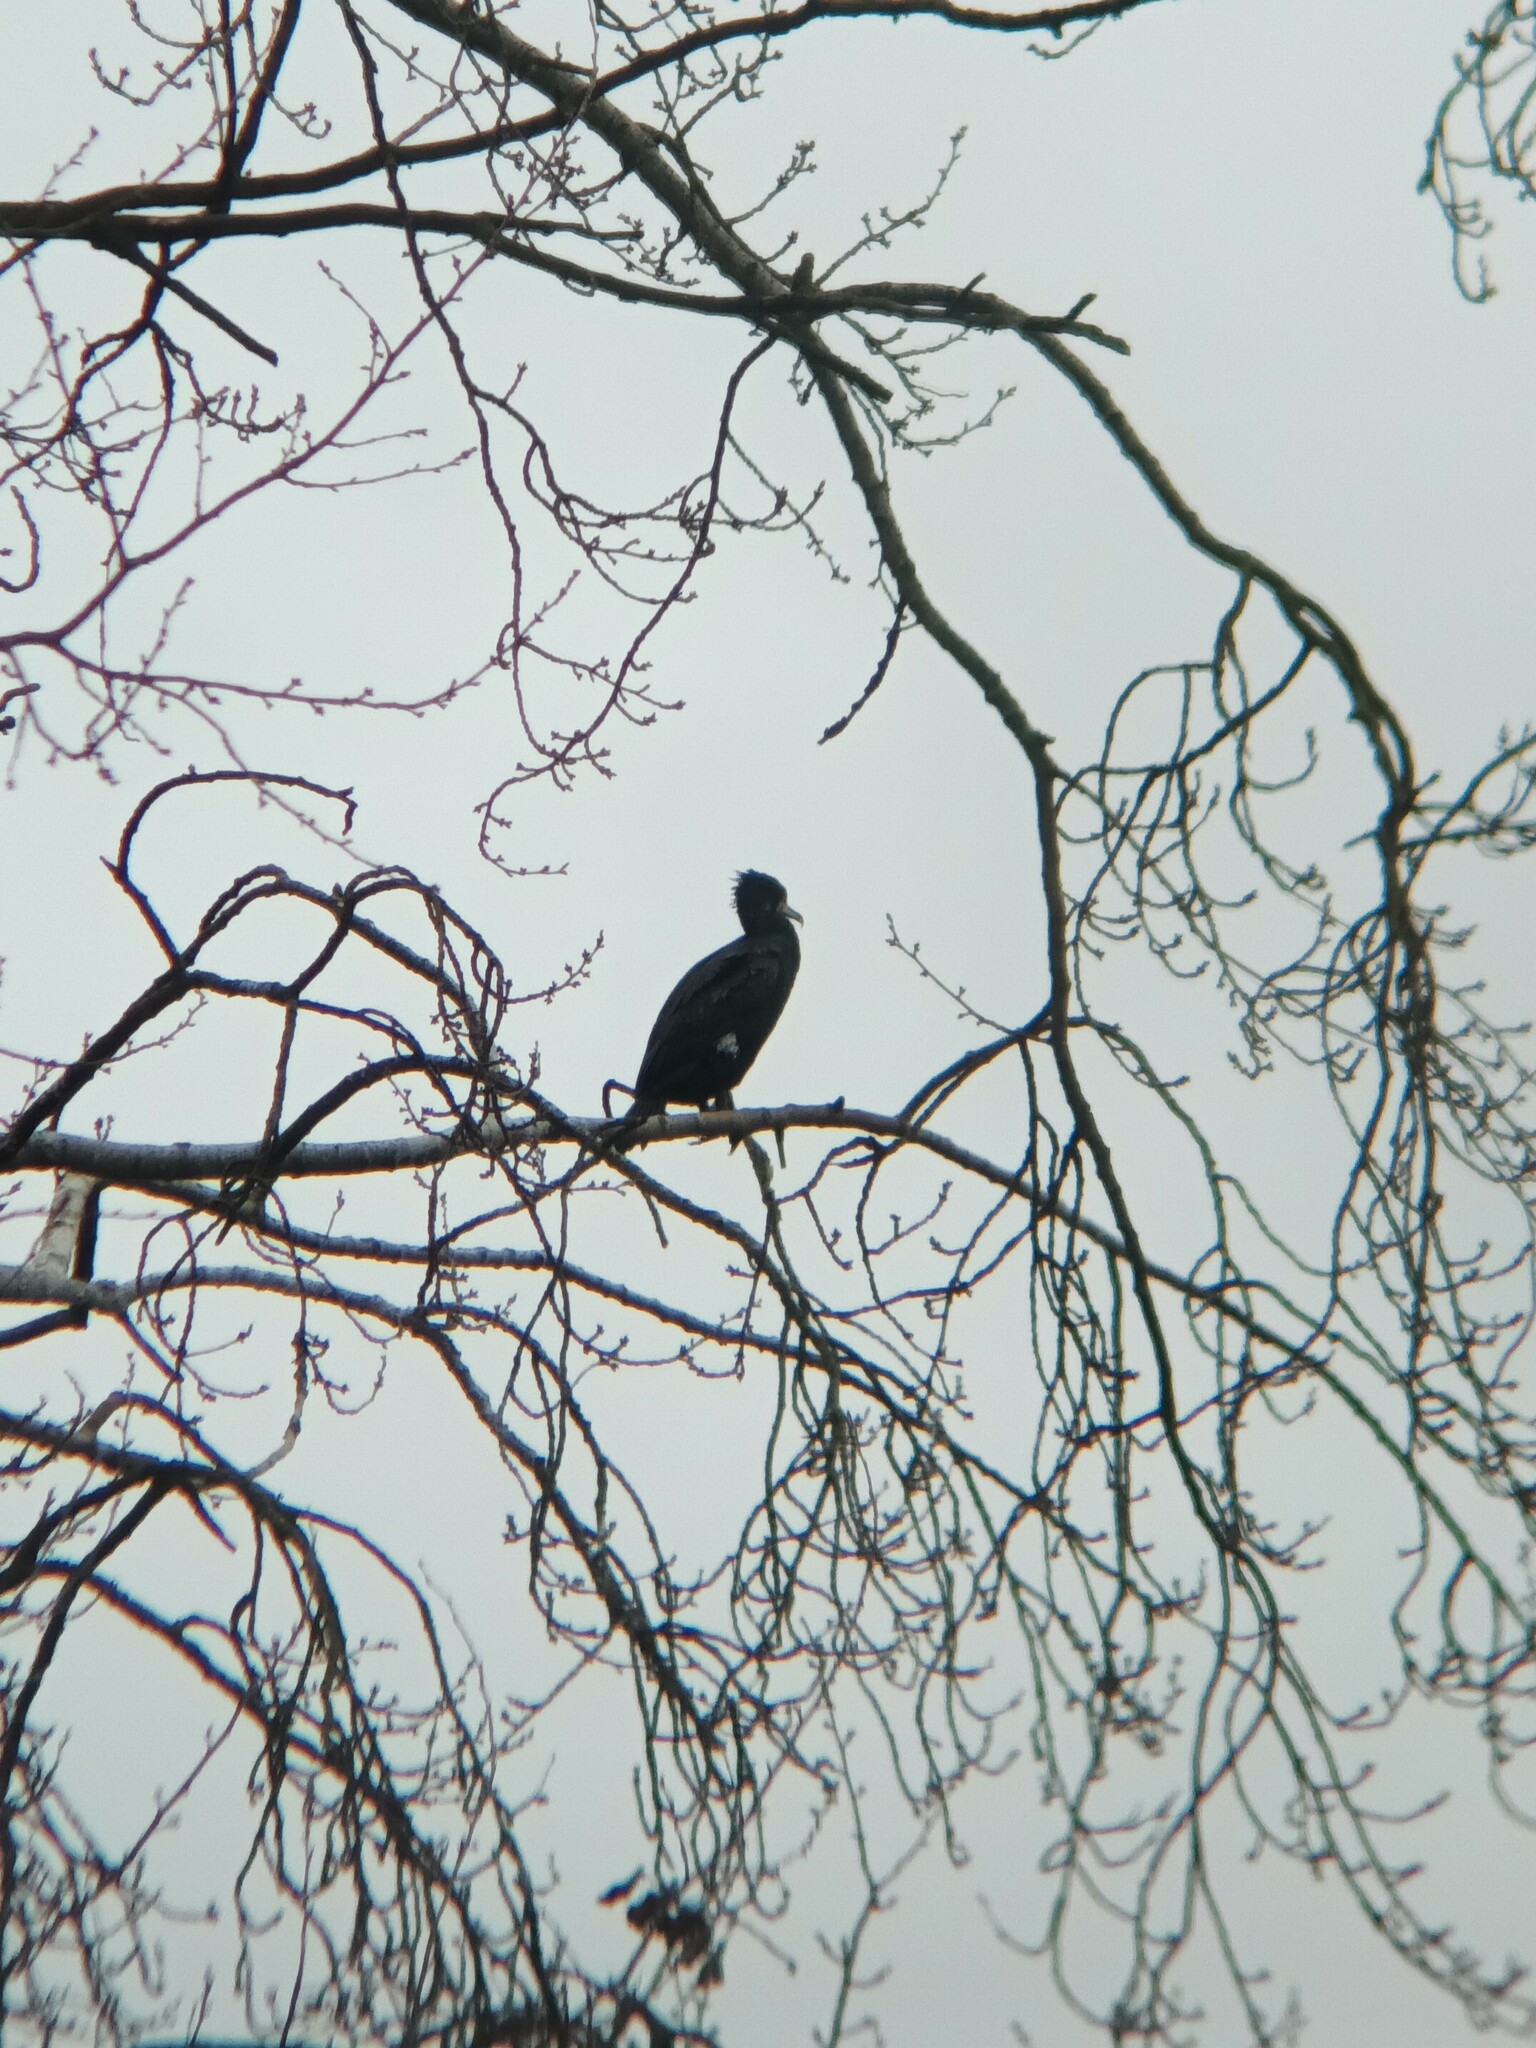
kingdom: Animalia
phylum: Chordata
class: Aves
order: Suliformes
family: Phalacrocoracidae
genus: Phalacrocorax
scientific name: Phalacrocorax carbo
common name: Great cormorant
